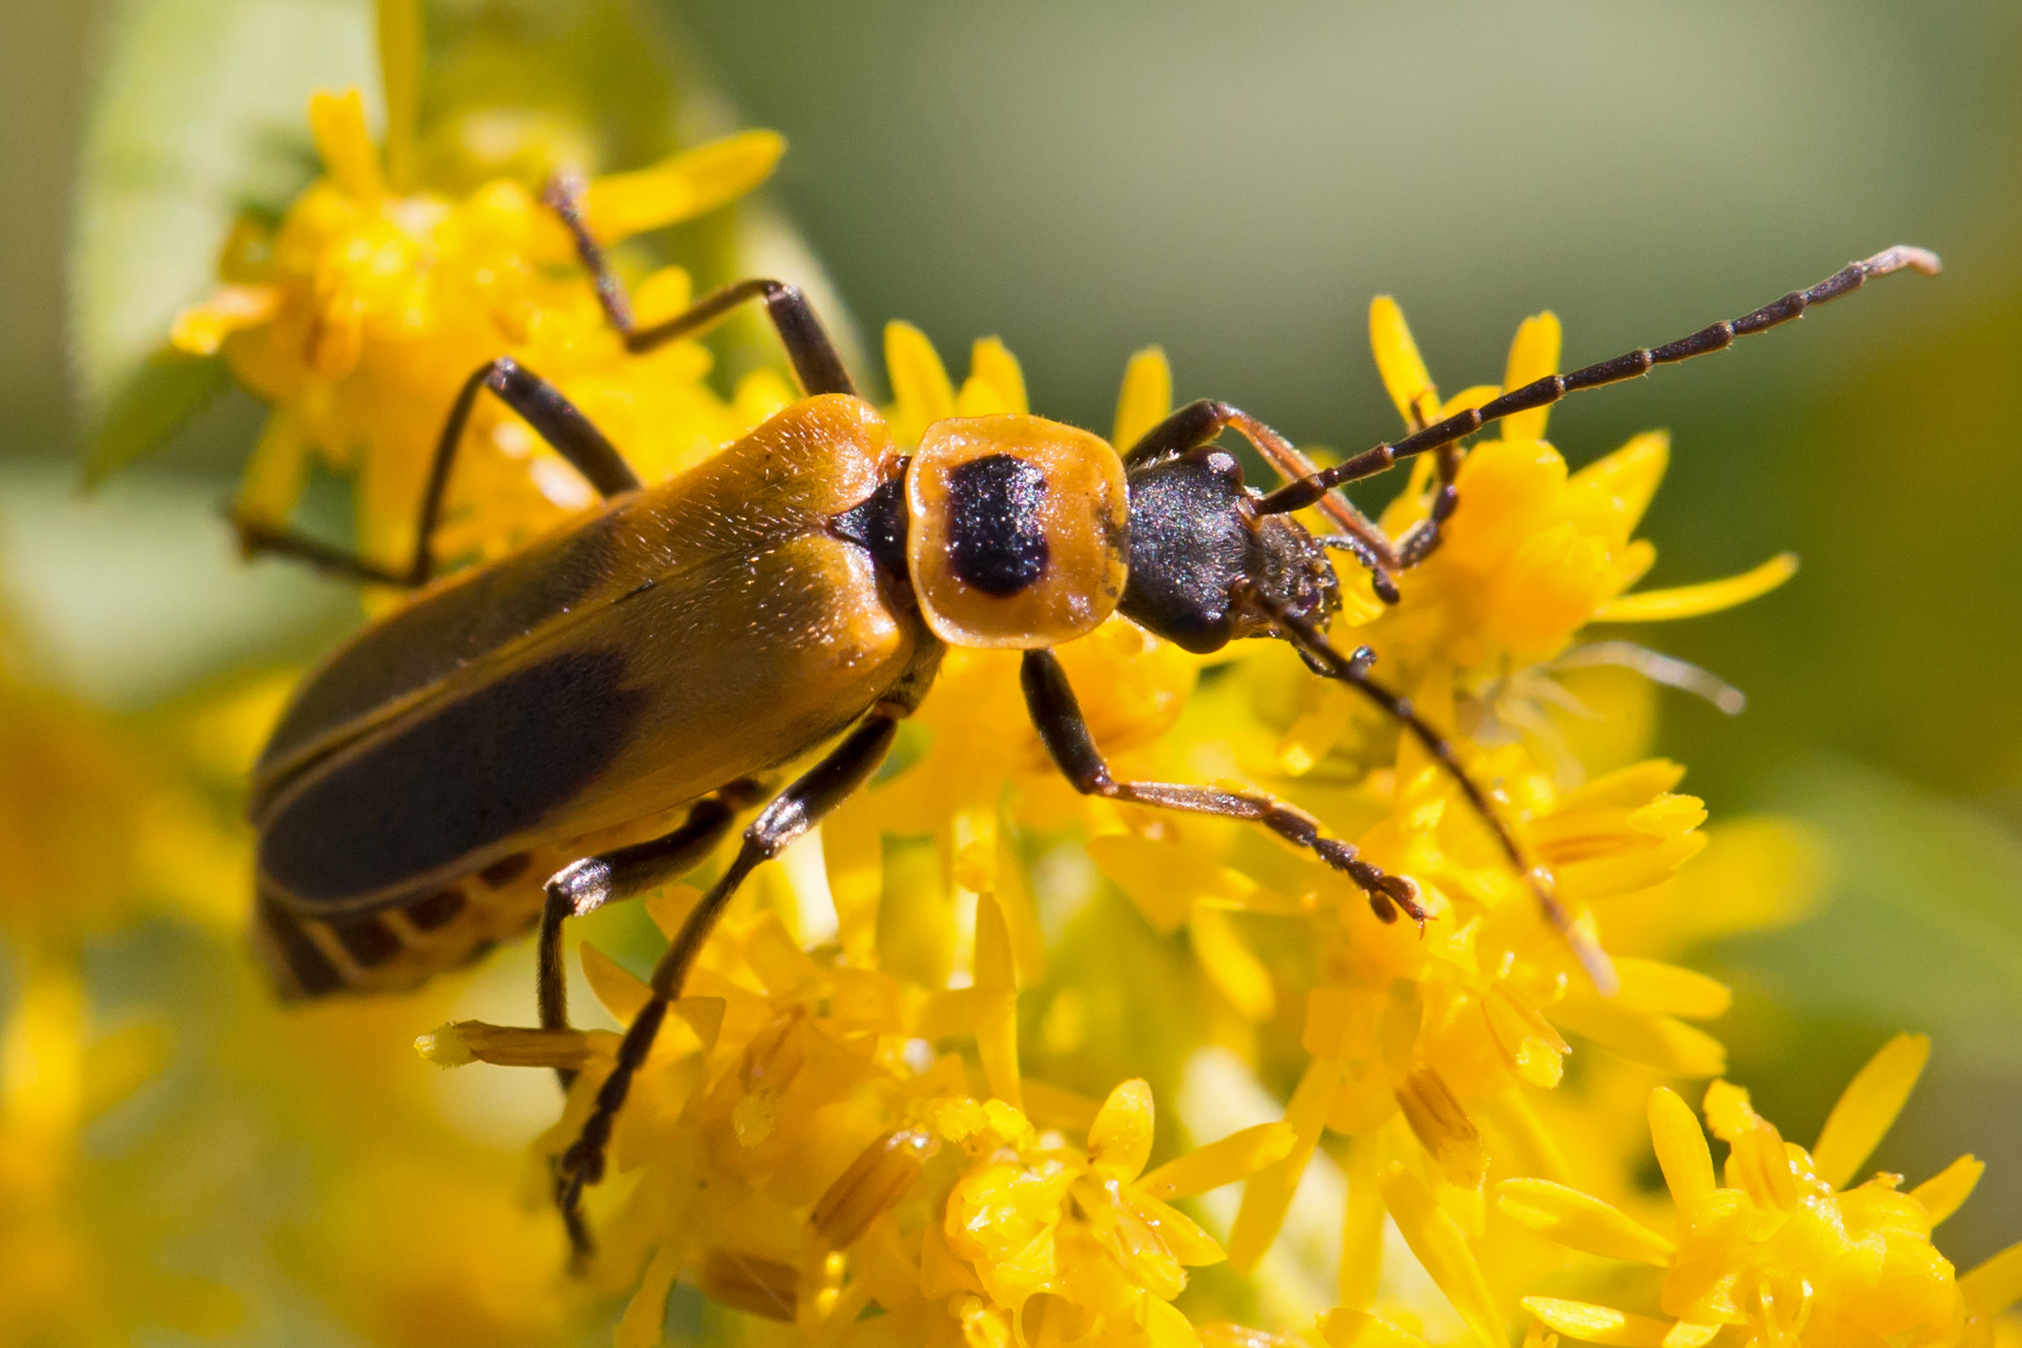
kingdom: Animalia
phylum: Arthropoda
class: Insecta
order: Coleoptera
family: Cantharidae
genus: Chauliognathus
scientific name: Chauliognathus pensylvanicus
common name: Goldenrod soldier beetle
